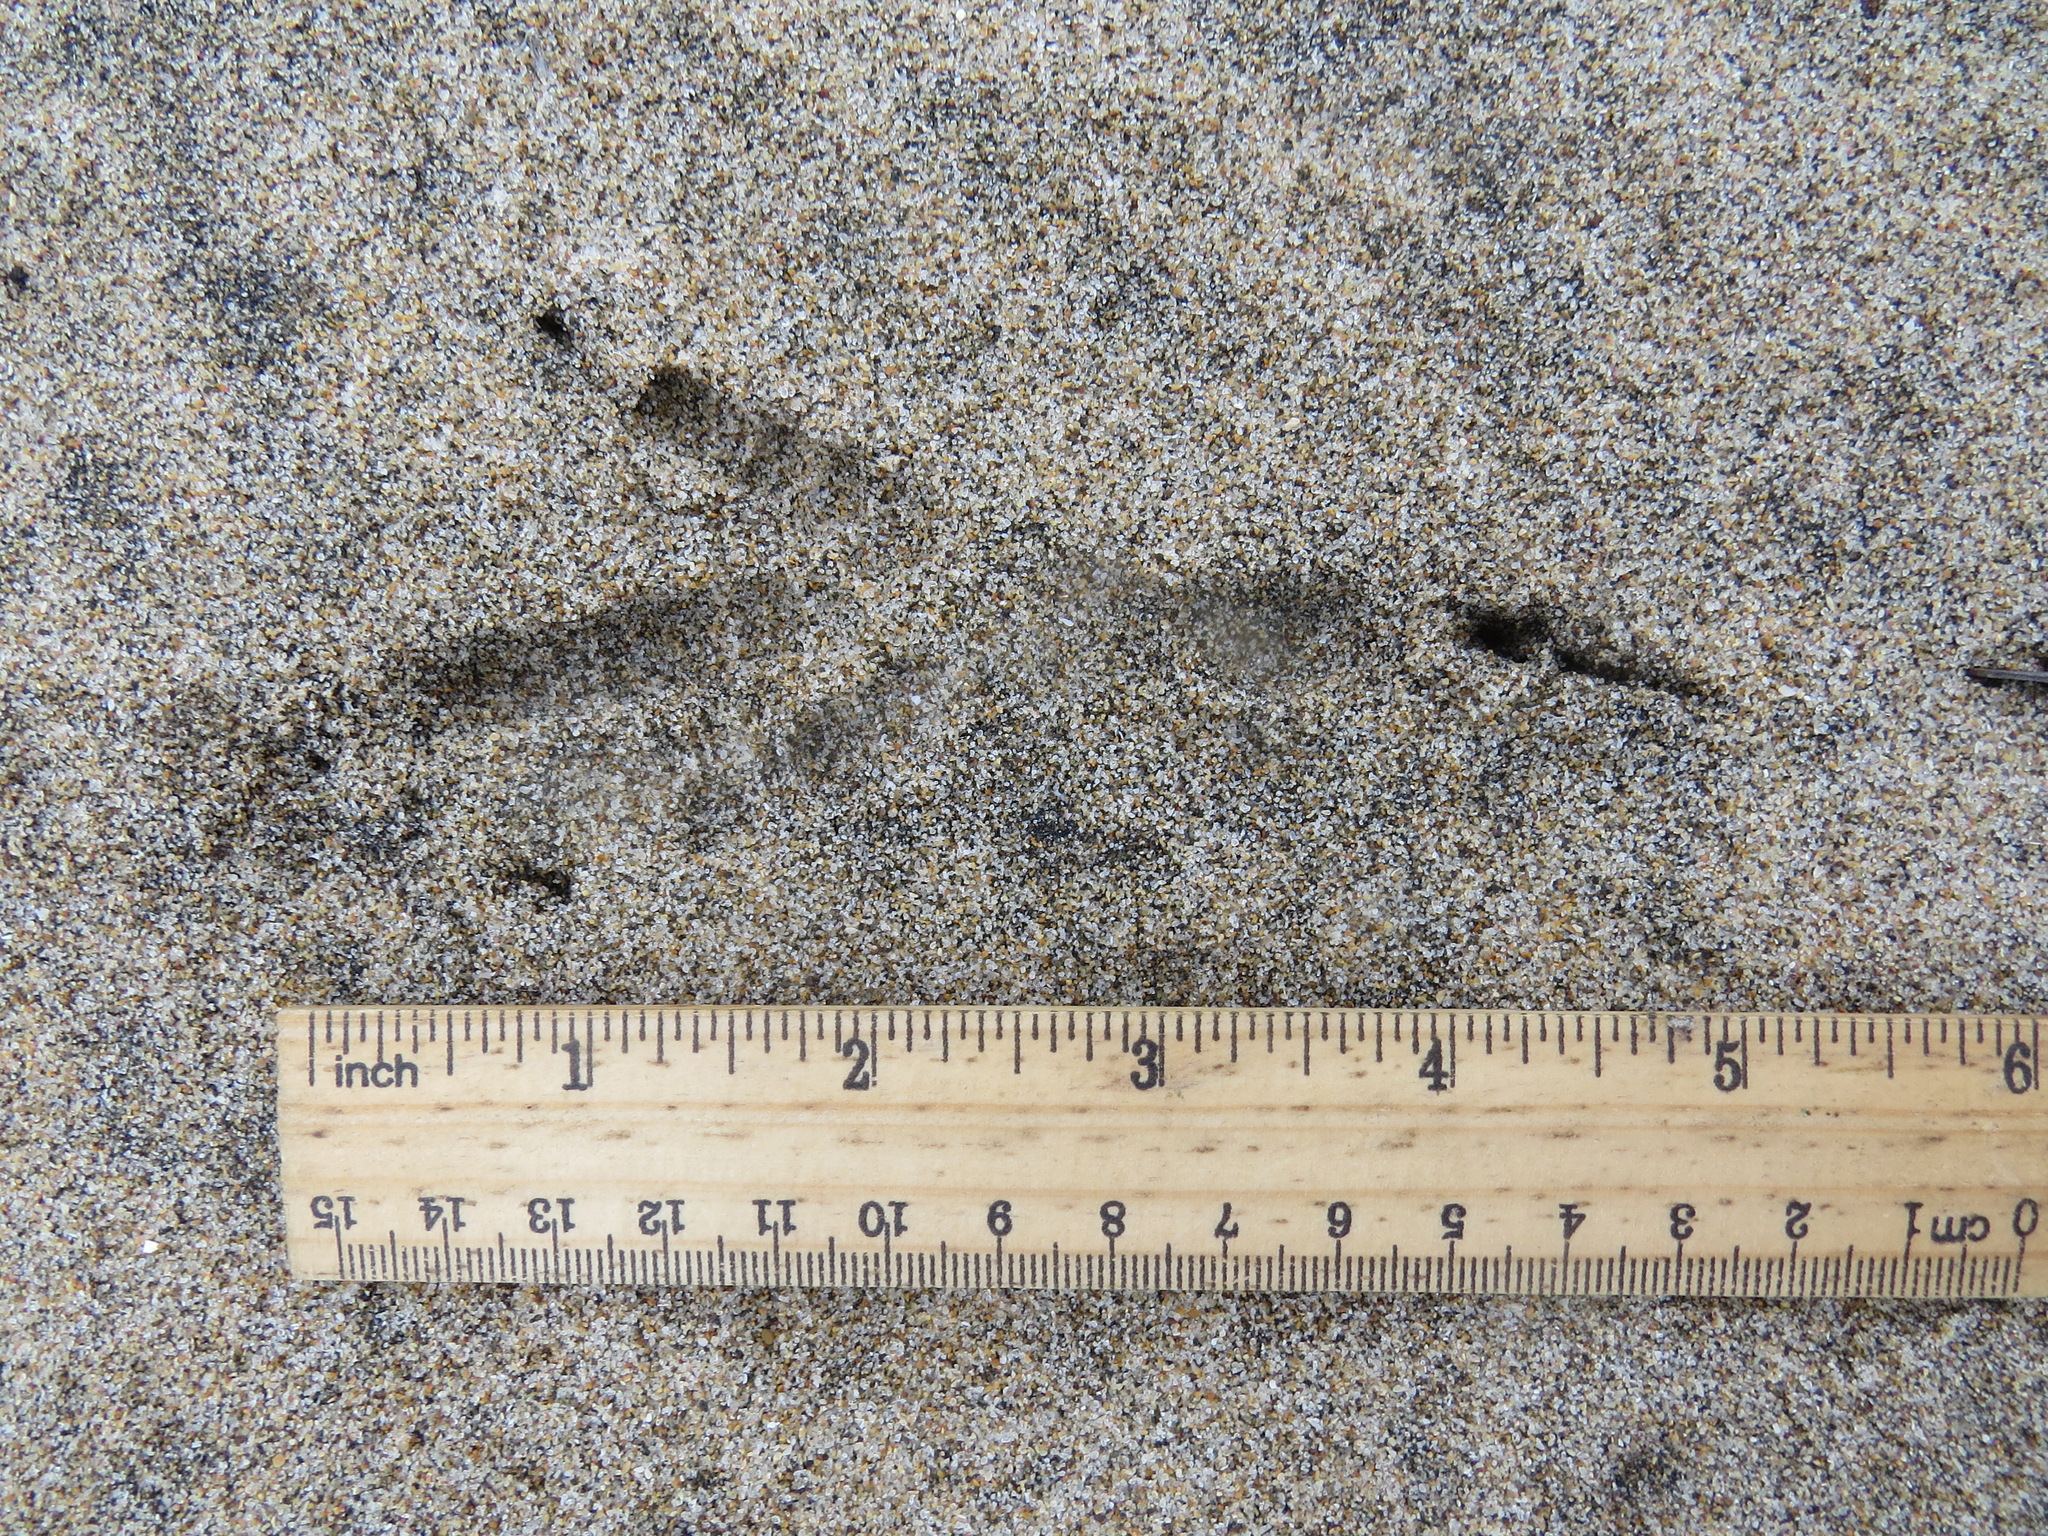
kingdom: Animalia
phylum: Chordata
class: Aves
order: Passeriformes
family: Corvidae
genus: Corvus
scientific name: Corvus corax
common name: Common raven
